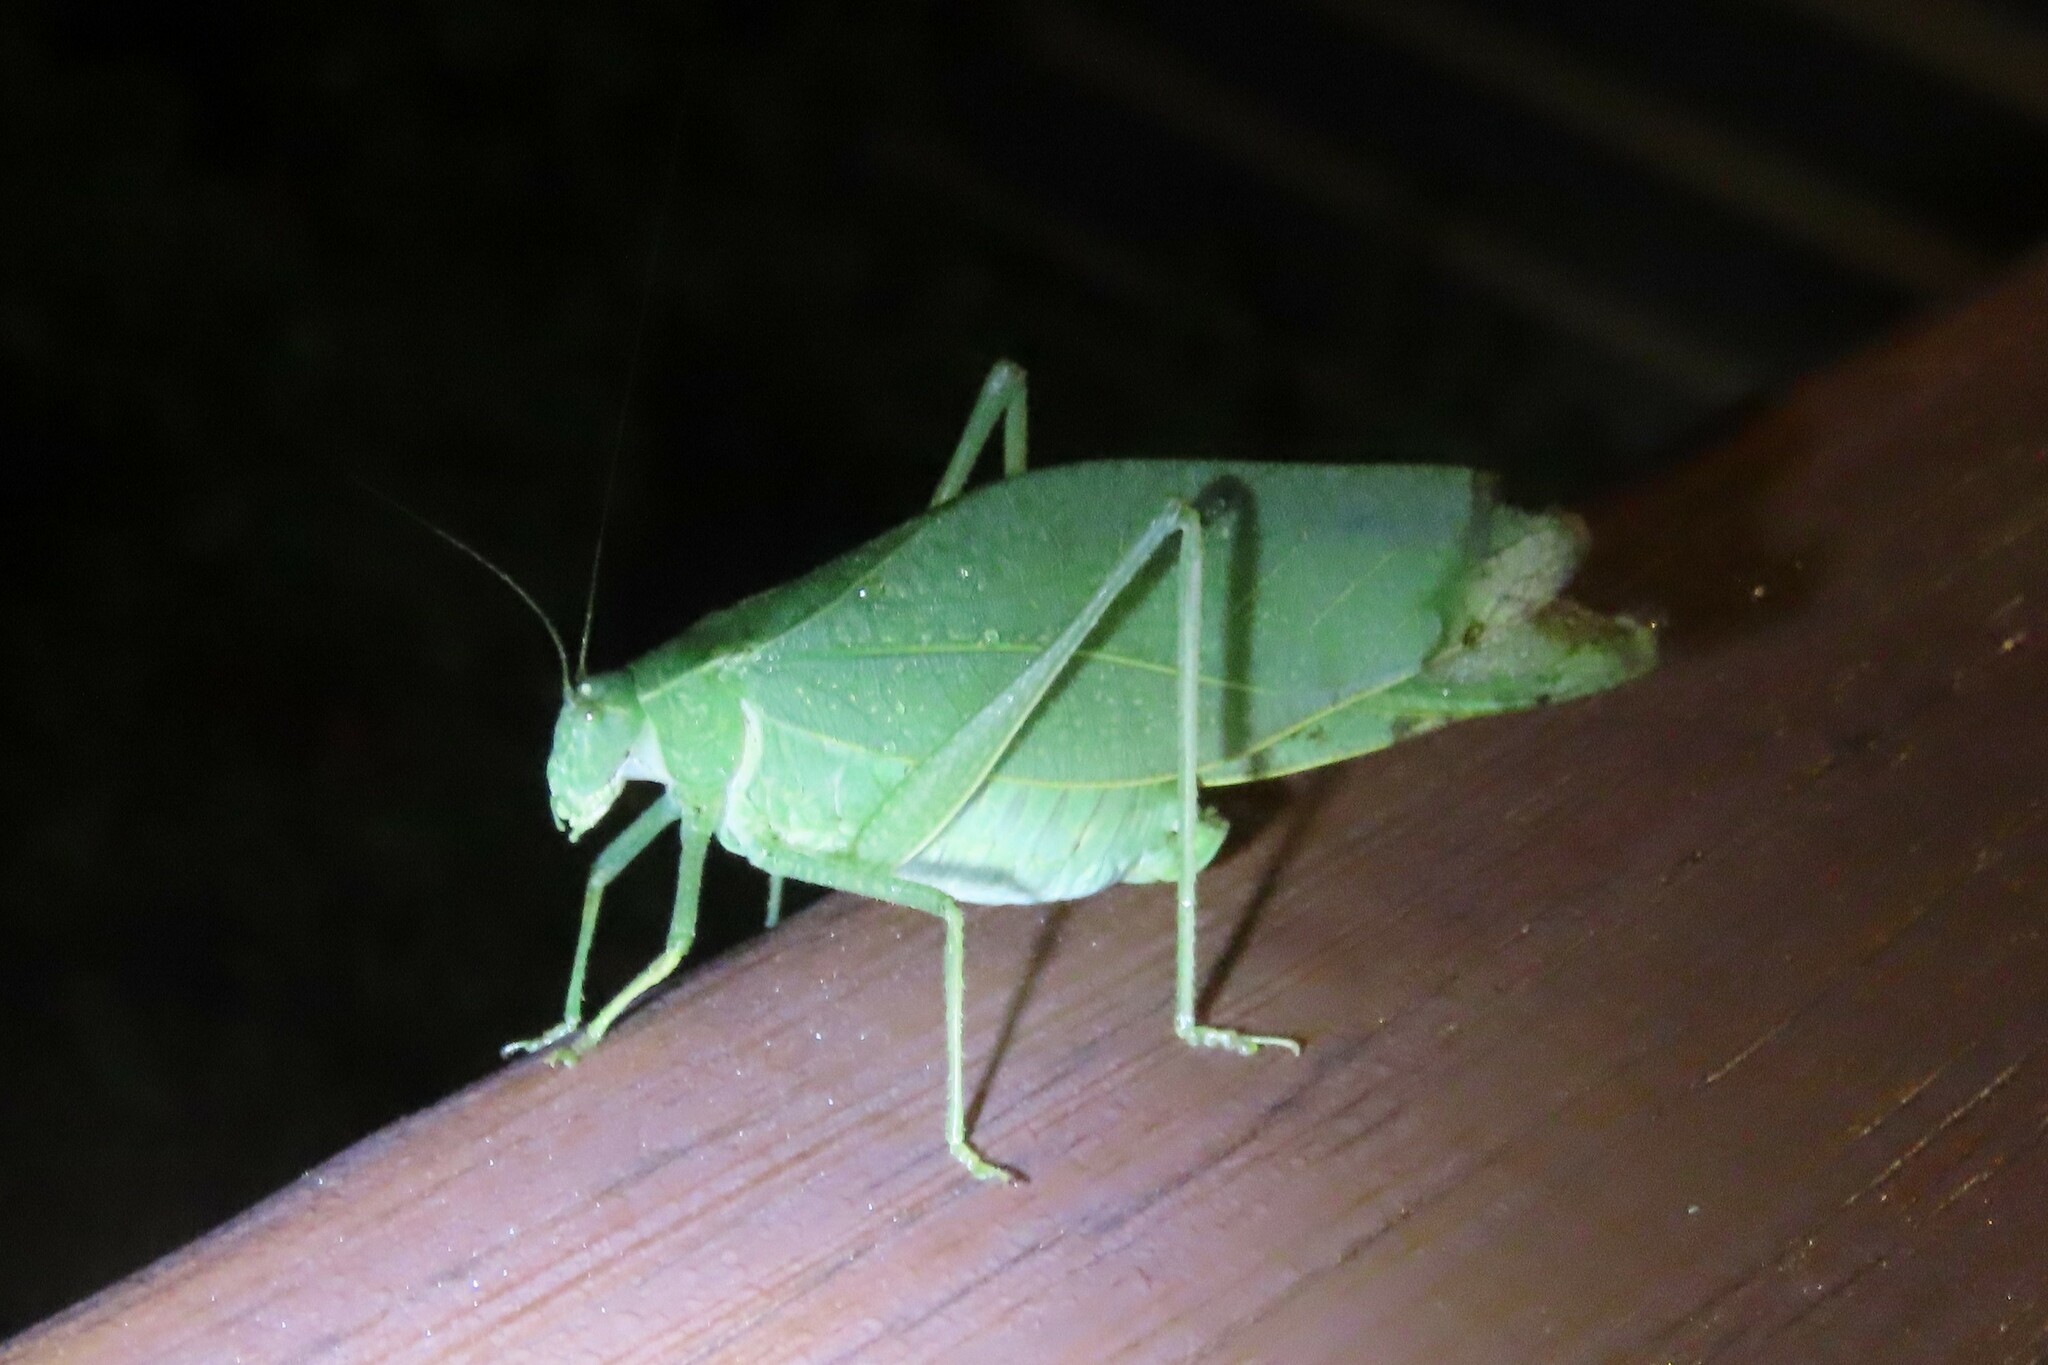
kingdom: Animalia
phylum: Arthropoda
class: Insecta
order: Orthoptera
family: Tettigoniidae
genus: Microcentrum
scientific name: Microcentrum rhombifolium
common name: Broad-winged katydid
